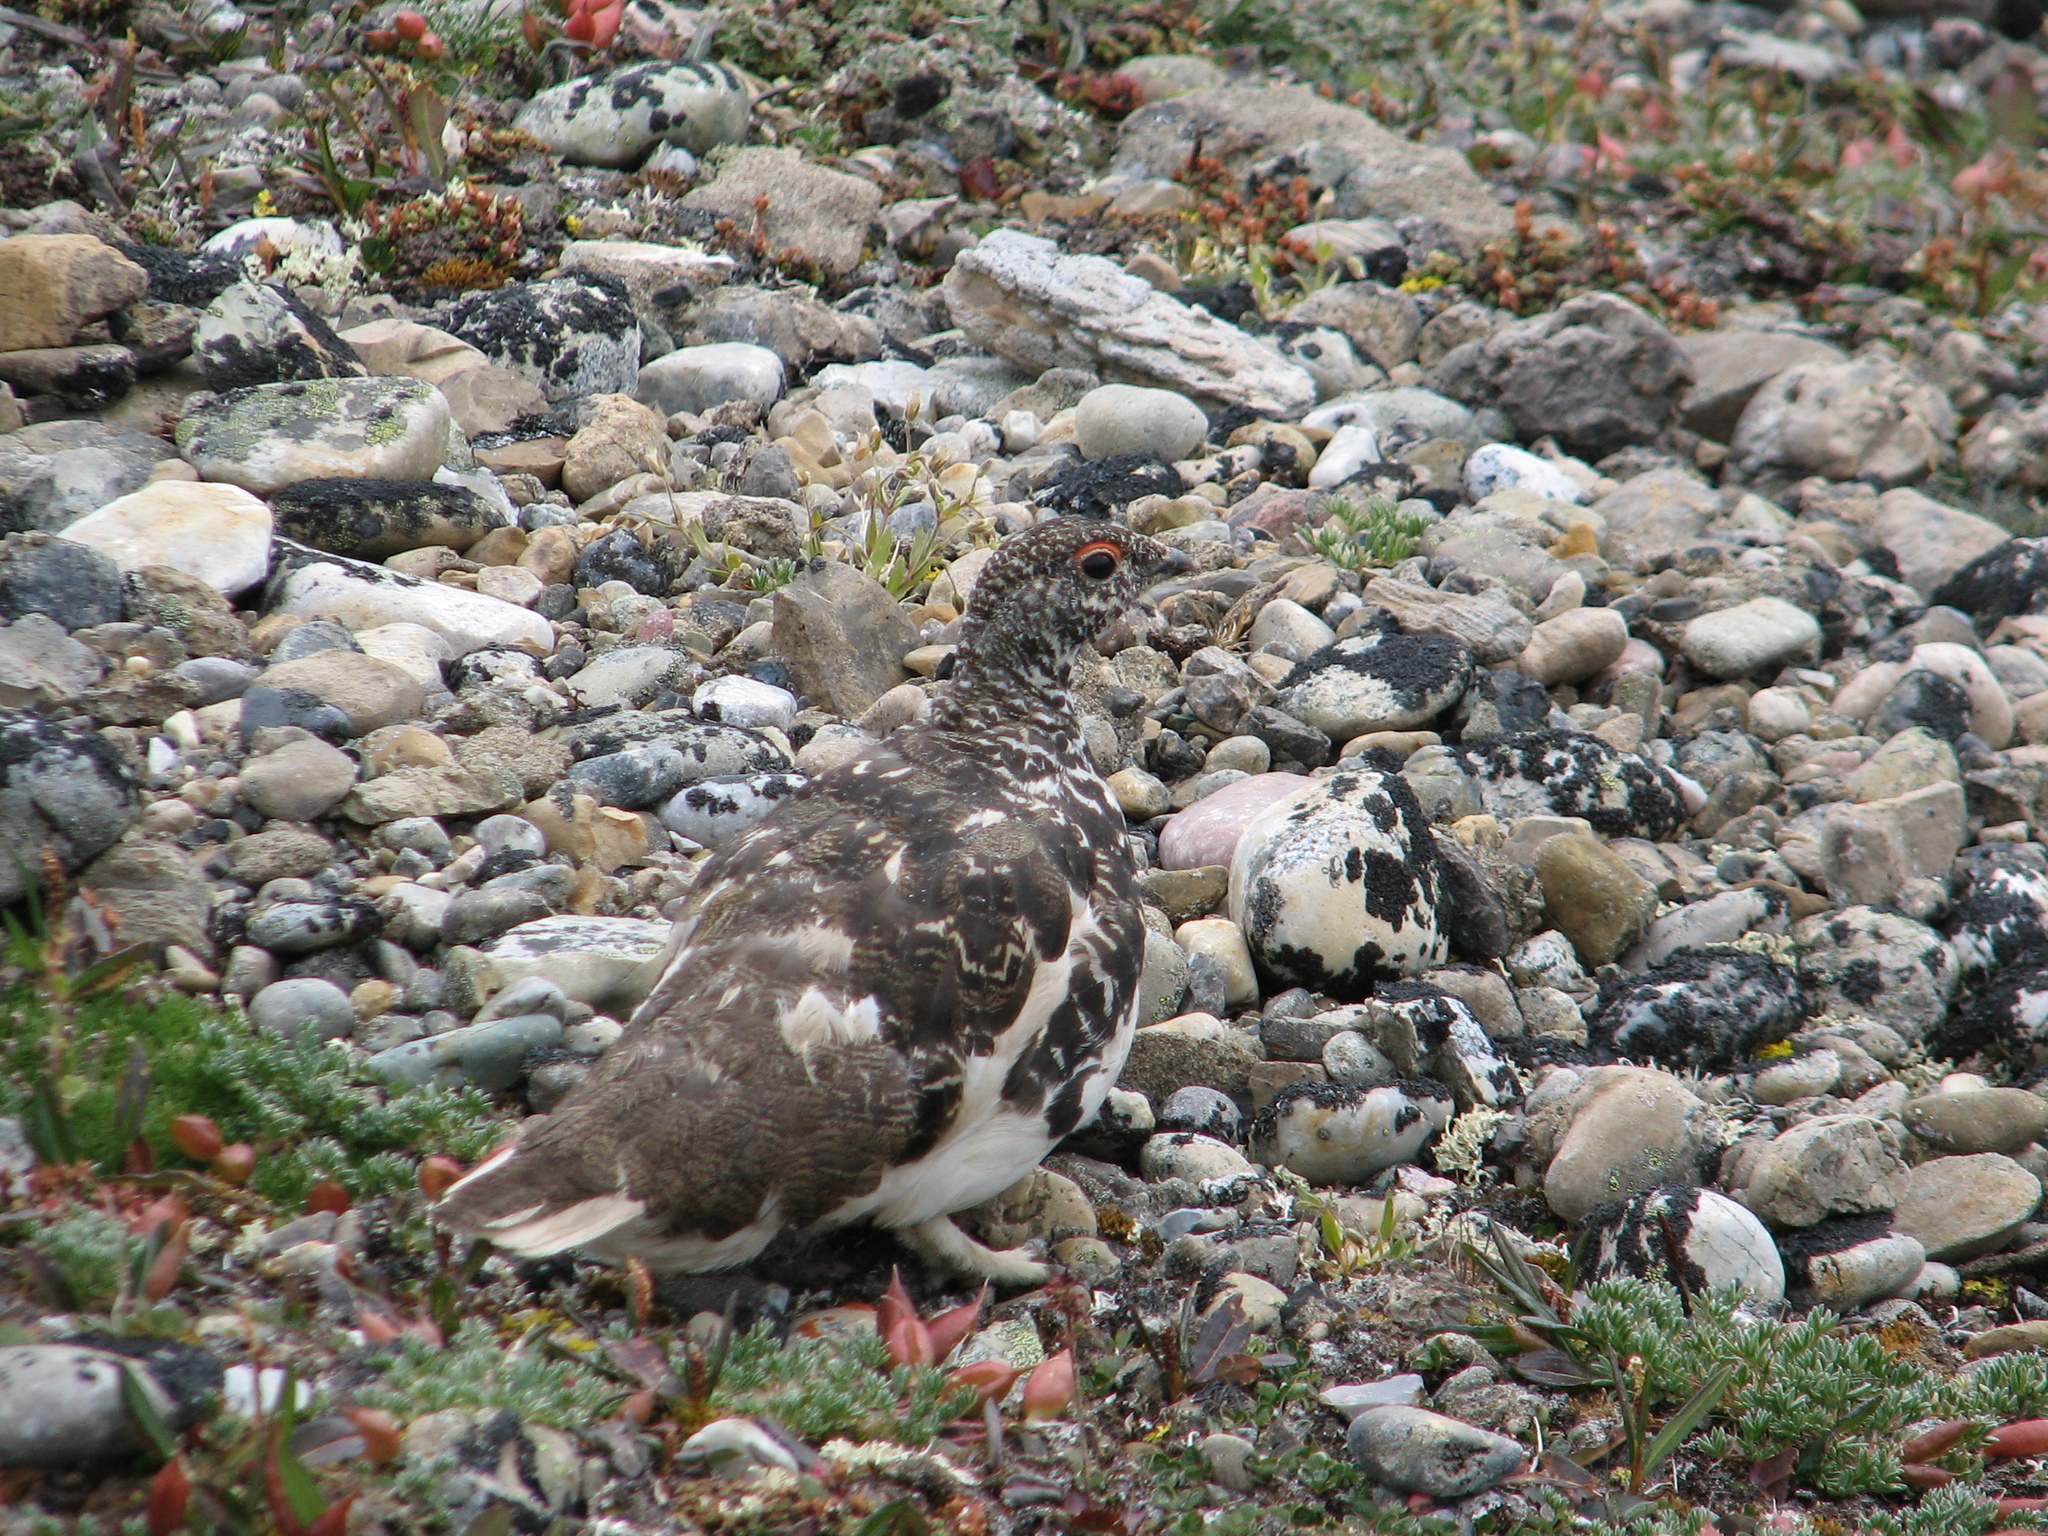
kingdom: Animalia
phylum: Chordata
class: Aves
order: Galliformes
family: Phasianidae
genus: Lagopus
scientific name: Lagopus leucura
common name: White-tailed ptarmigan
